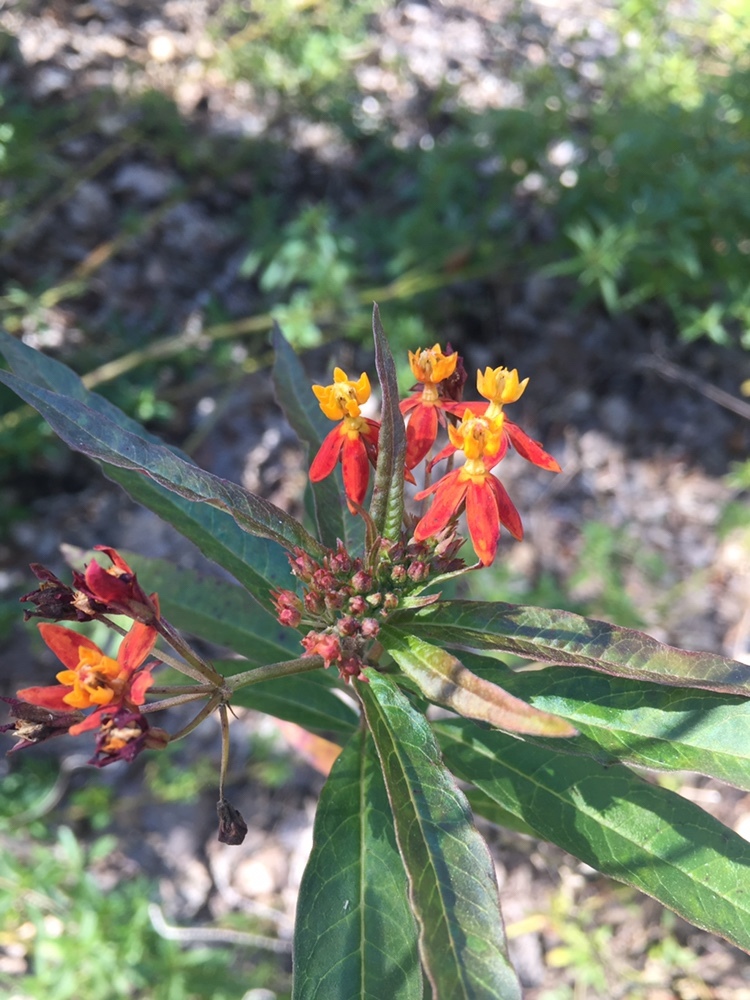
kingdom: Plantae
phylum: Tracheophyta
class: Magnoliopsida
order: Gentianales
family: Apocynaceae
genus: Asclepias
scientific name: Asclepias curassavica
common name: Bloodflower
